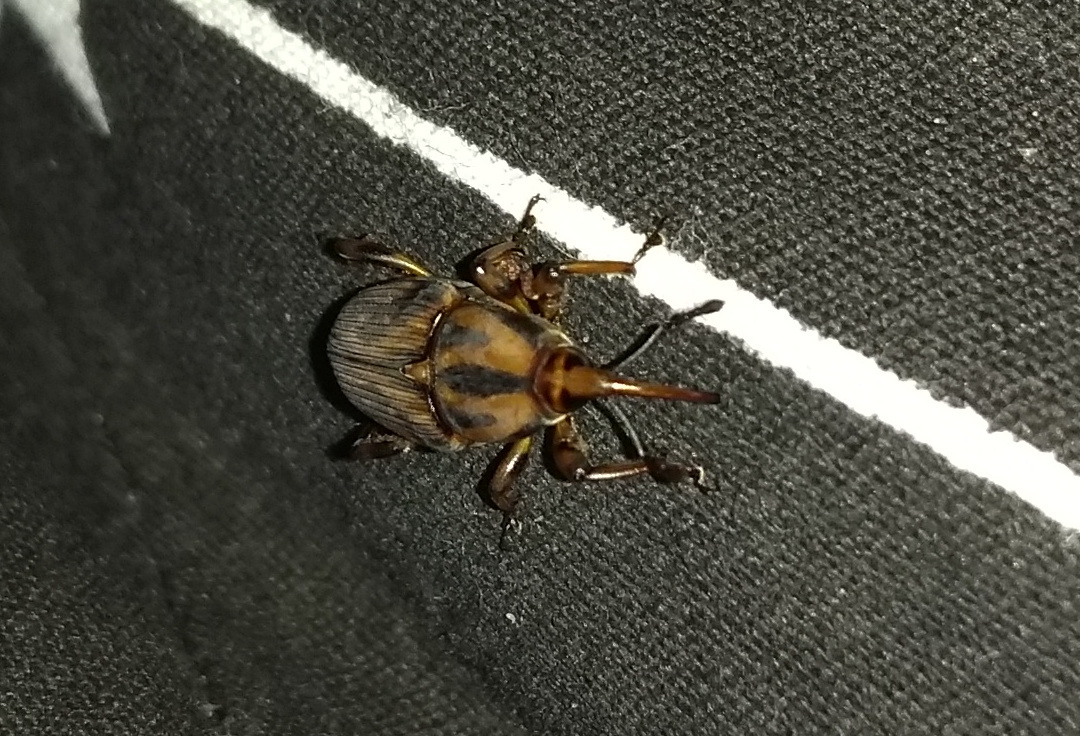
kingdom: Animalia
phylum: Arthropoda
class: Insecta
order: Coleoptera
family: Dryophthoridae
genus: Metamasius
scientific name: Metamasius hemipterus
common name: Weevil
